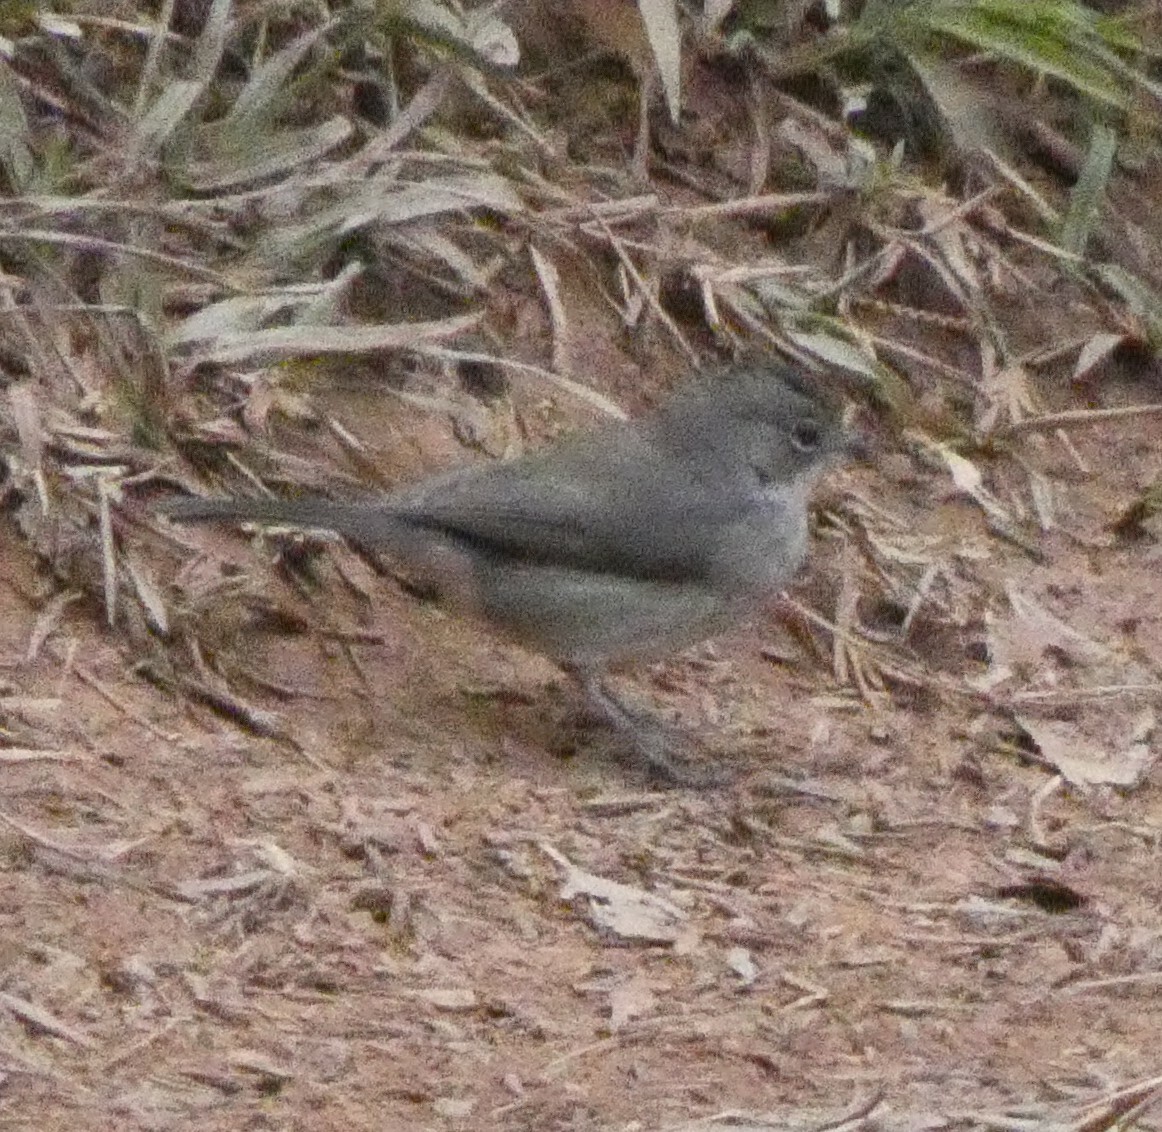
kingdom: Animalia
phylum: Chordata
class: Aves
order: Passeriformes
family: Thraupidae
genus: Coryphospingus
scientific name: Coryphospingus pileatus
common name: Grey pileated finch
